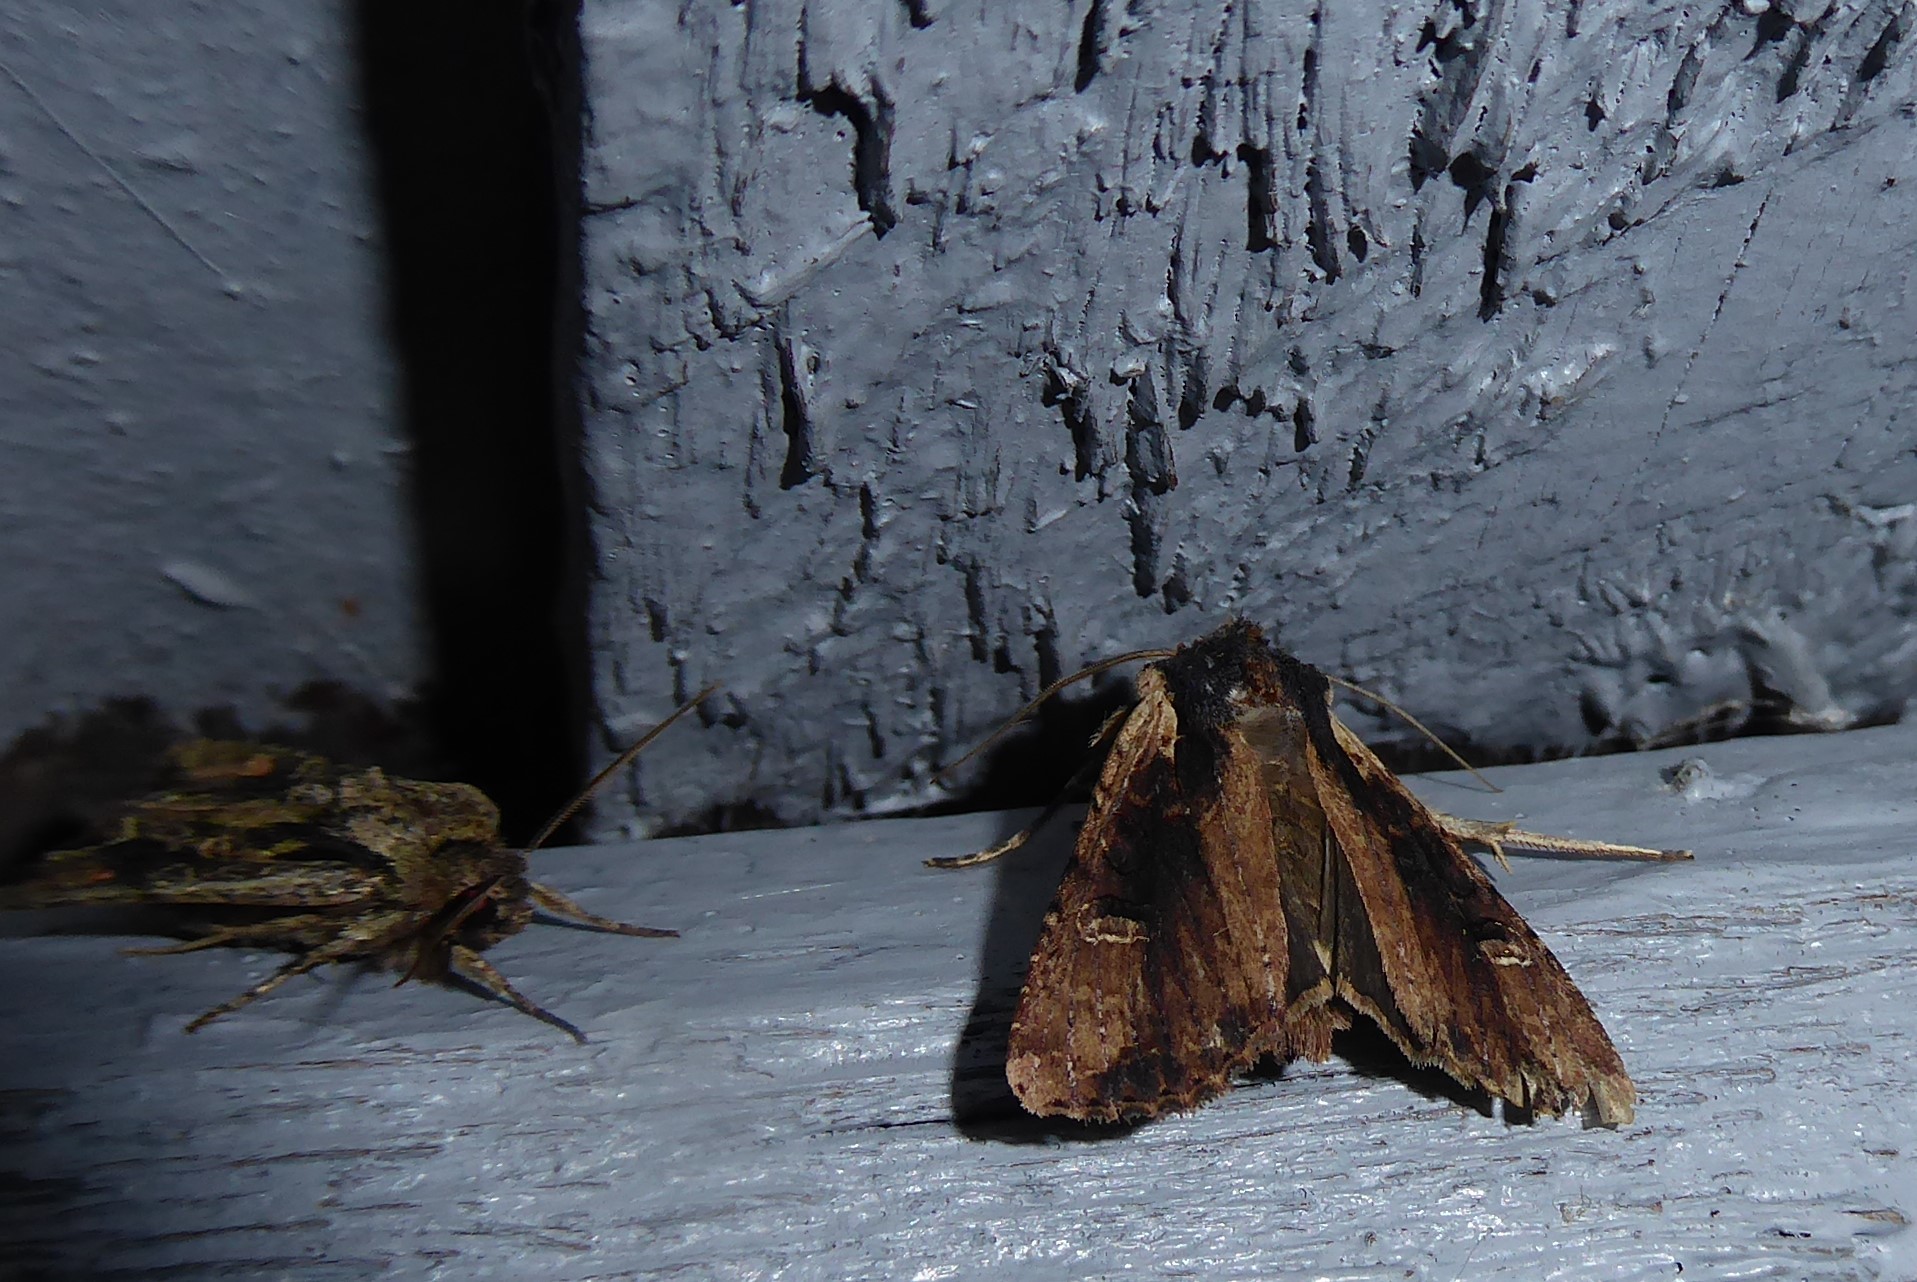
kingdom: Animalia
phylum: Arthropoda
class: Insecta
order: Lepidoptera
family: Noctuidae
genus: Ichneutica
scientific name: Ichneutica omoplaca
